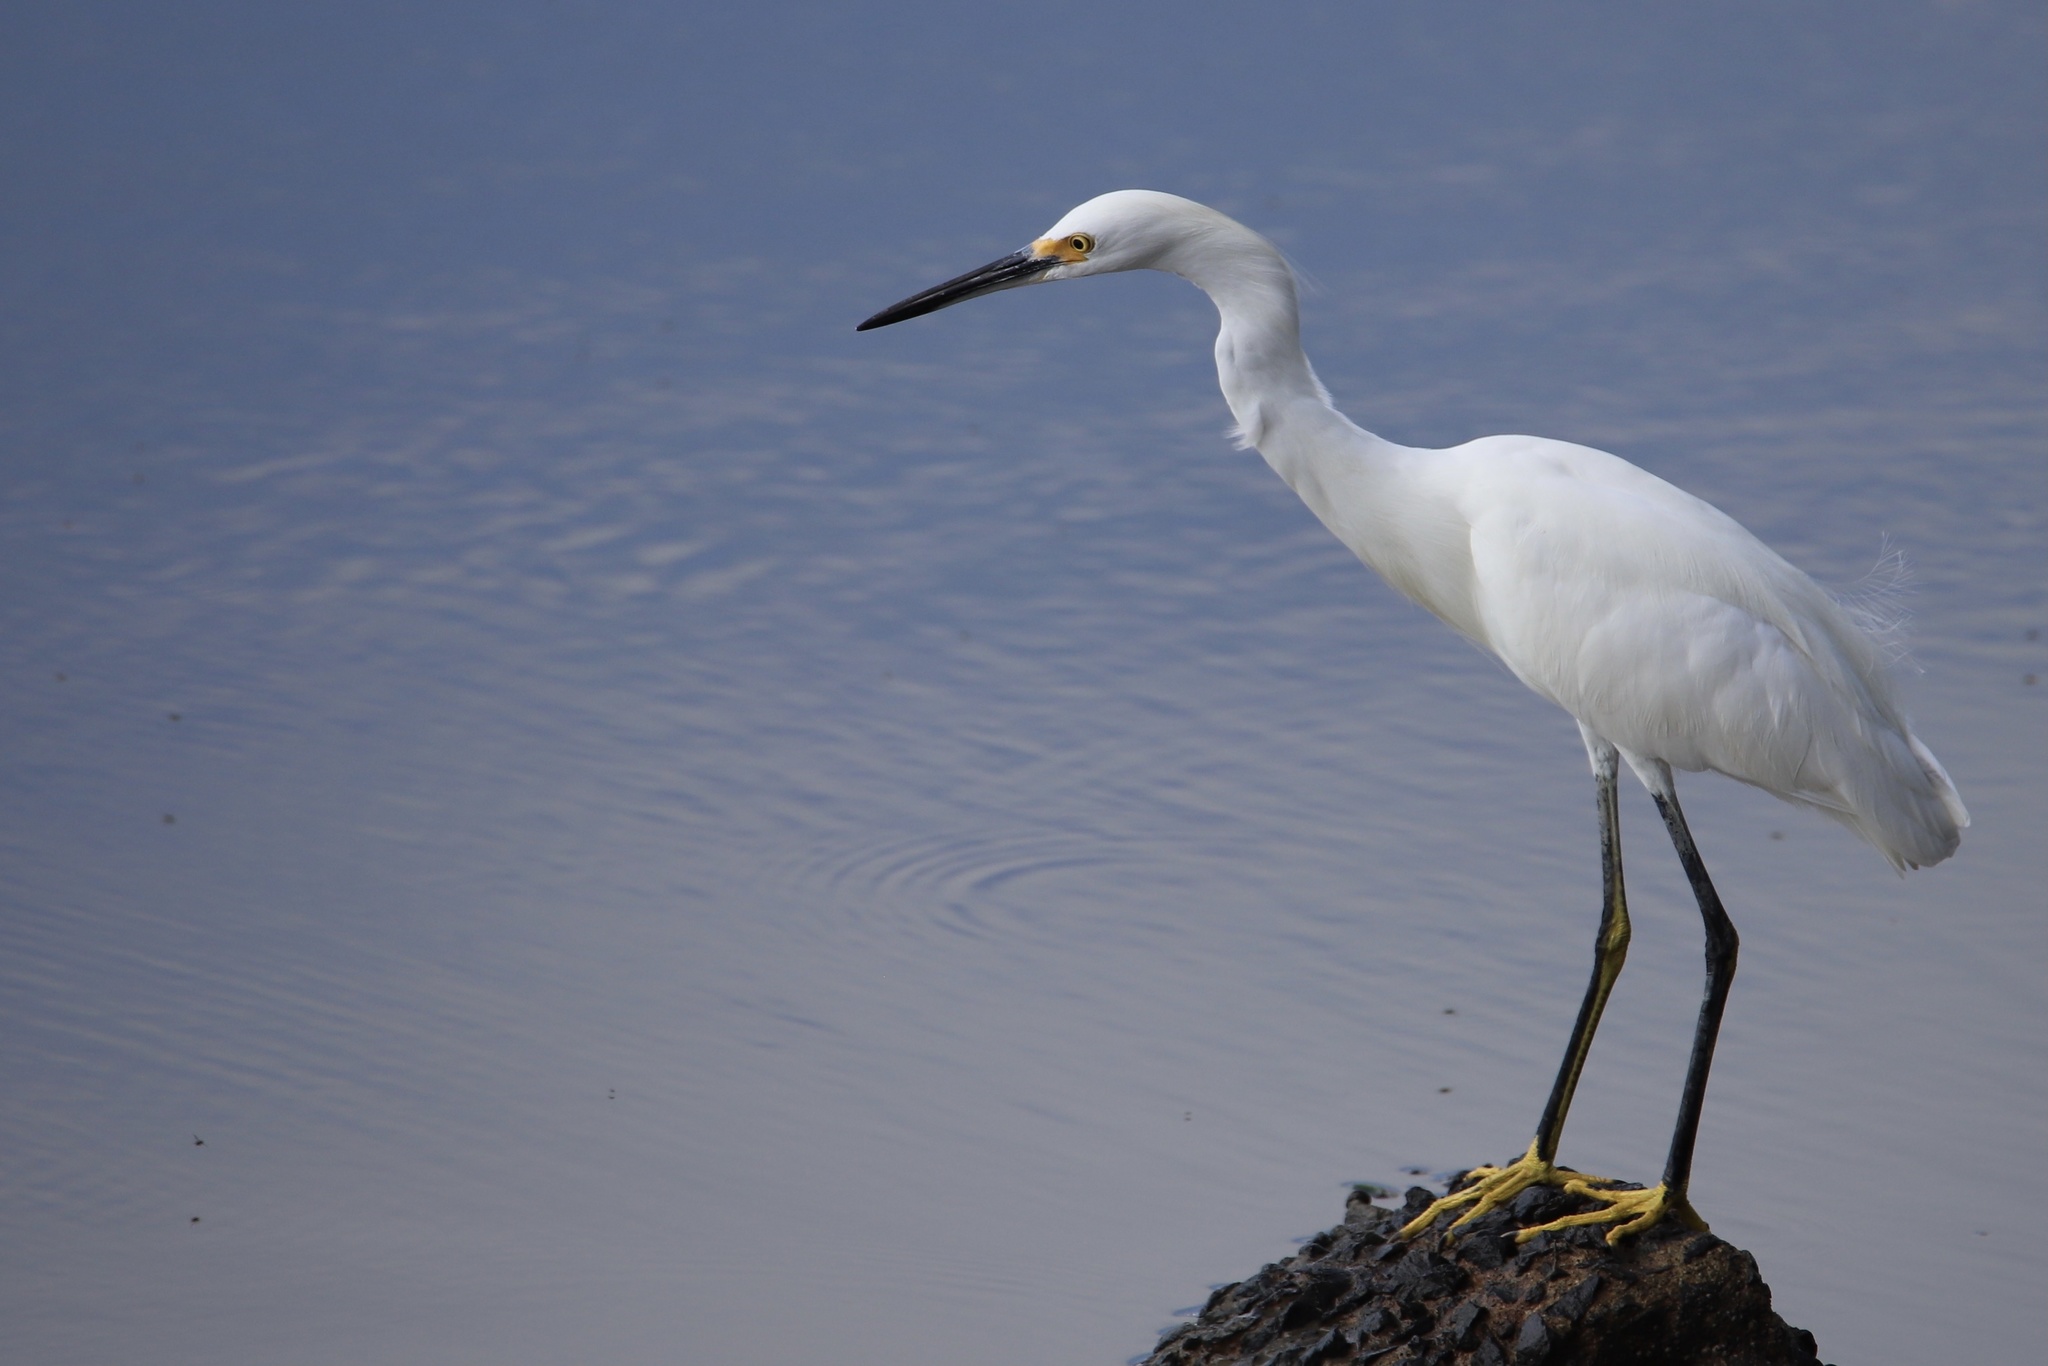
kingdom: Animalia
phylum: Chordata
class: Aves
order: Pelecaniformes
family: Ardeidae
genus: Egretta
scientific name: Egretta thula
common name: Snowy egret
